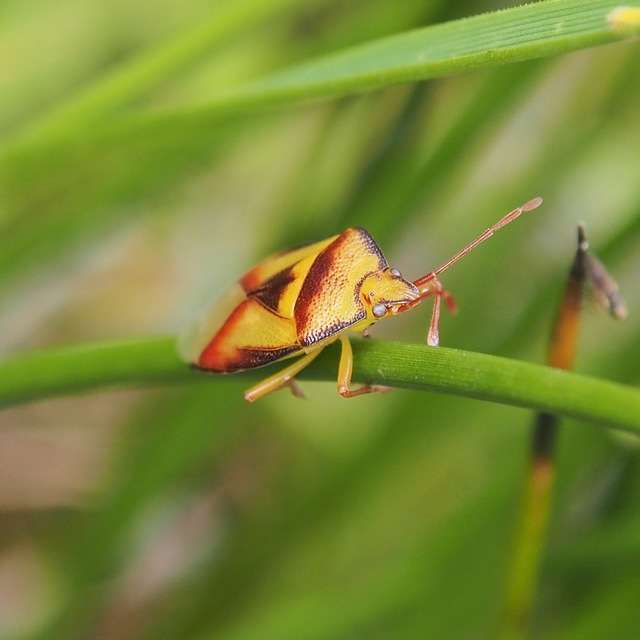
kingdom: Animalia
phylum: Arthropoda
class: Insecta
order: Hemiptera
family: Acanthosomatidae
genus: Stauralia
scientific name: Stauralia compuncta
